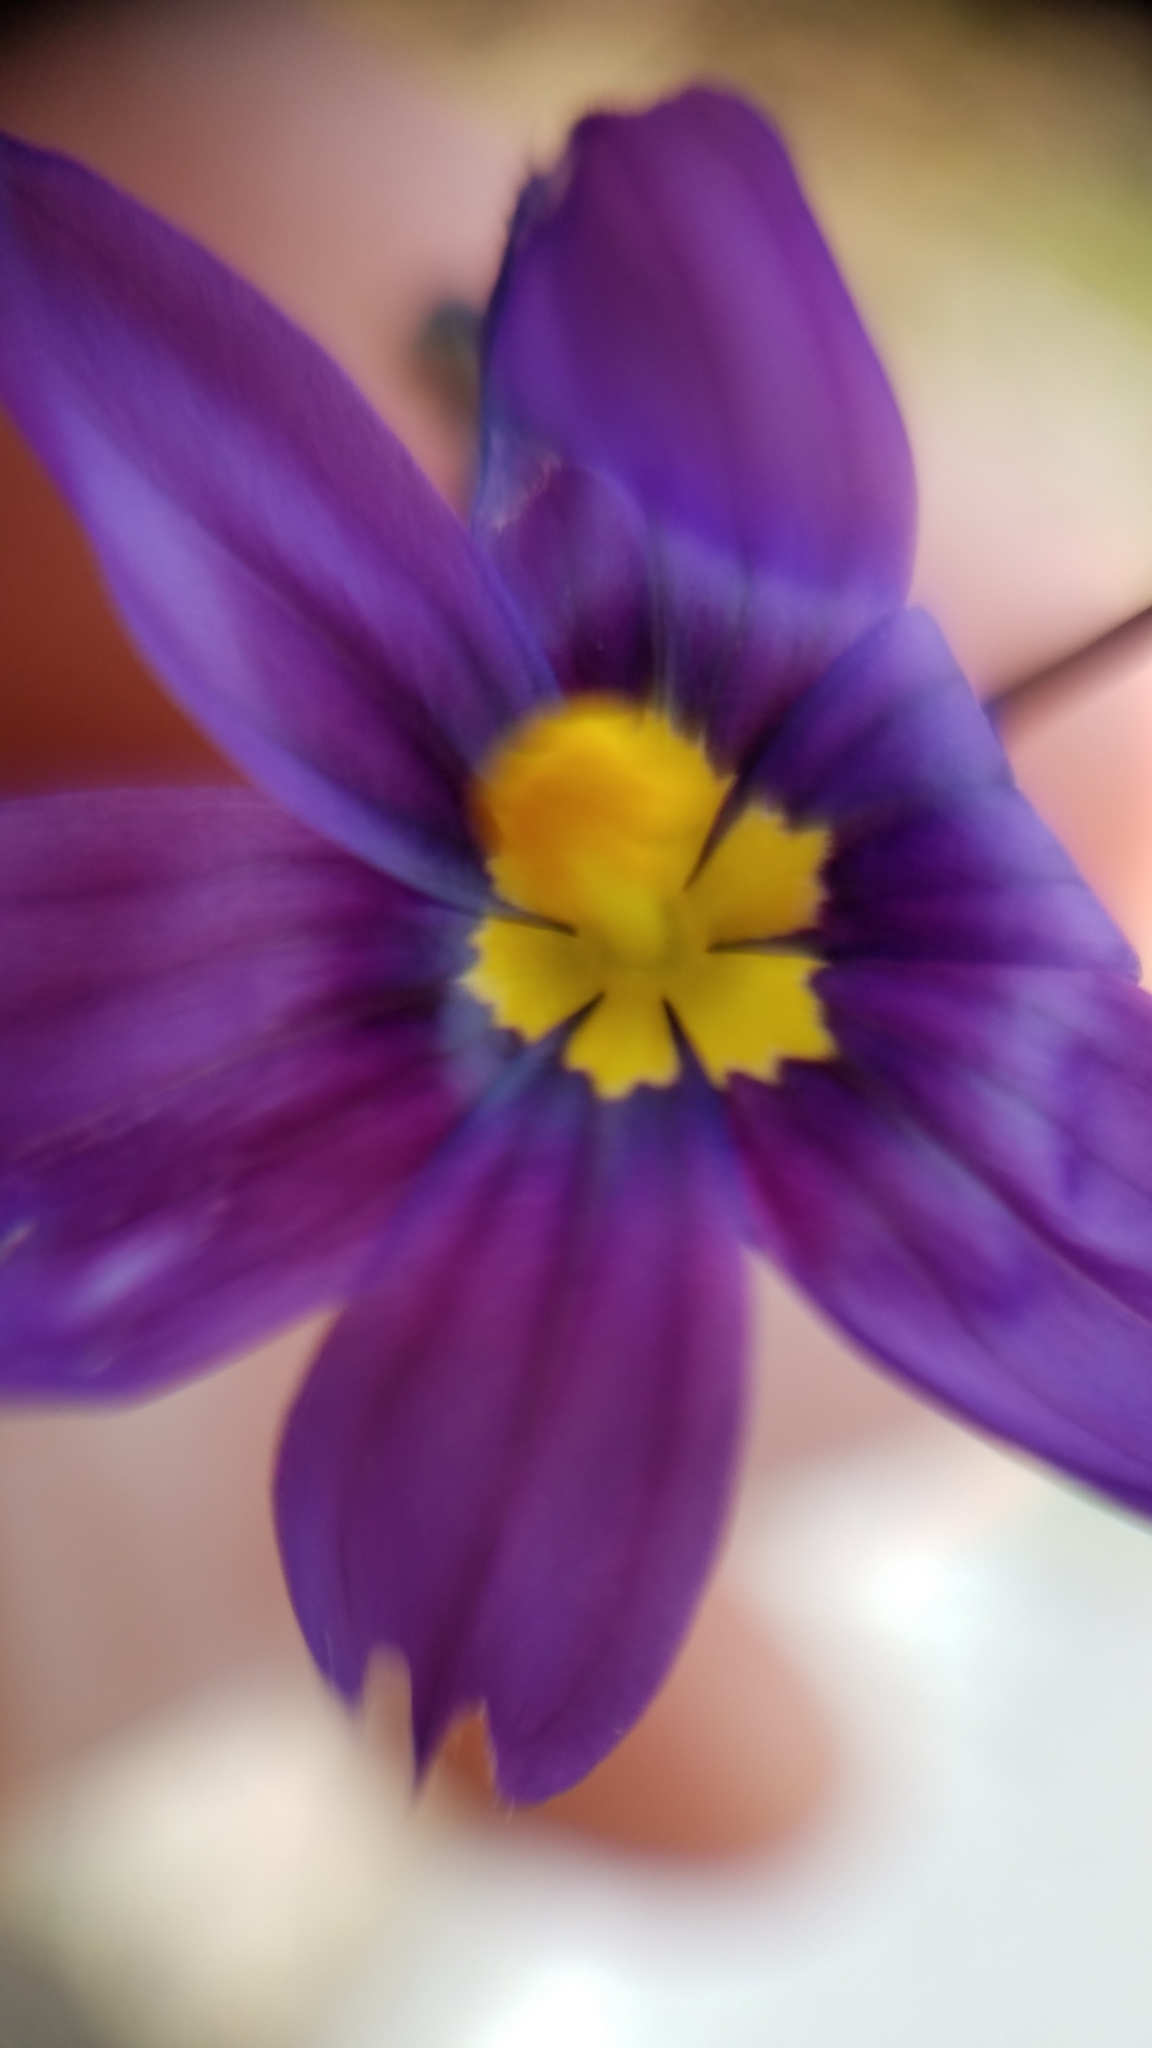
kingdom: Plantae
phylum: Tracheophyta
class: Liliopsida
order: Asparagales
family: Iridaceae
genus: Sisyrinchium
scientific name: Sisyrinchium bellum
